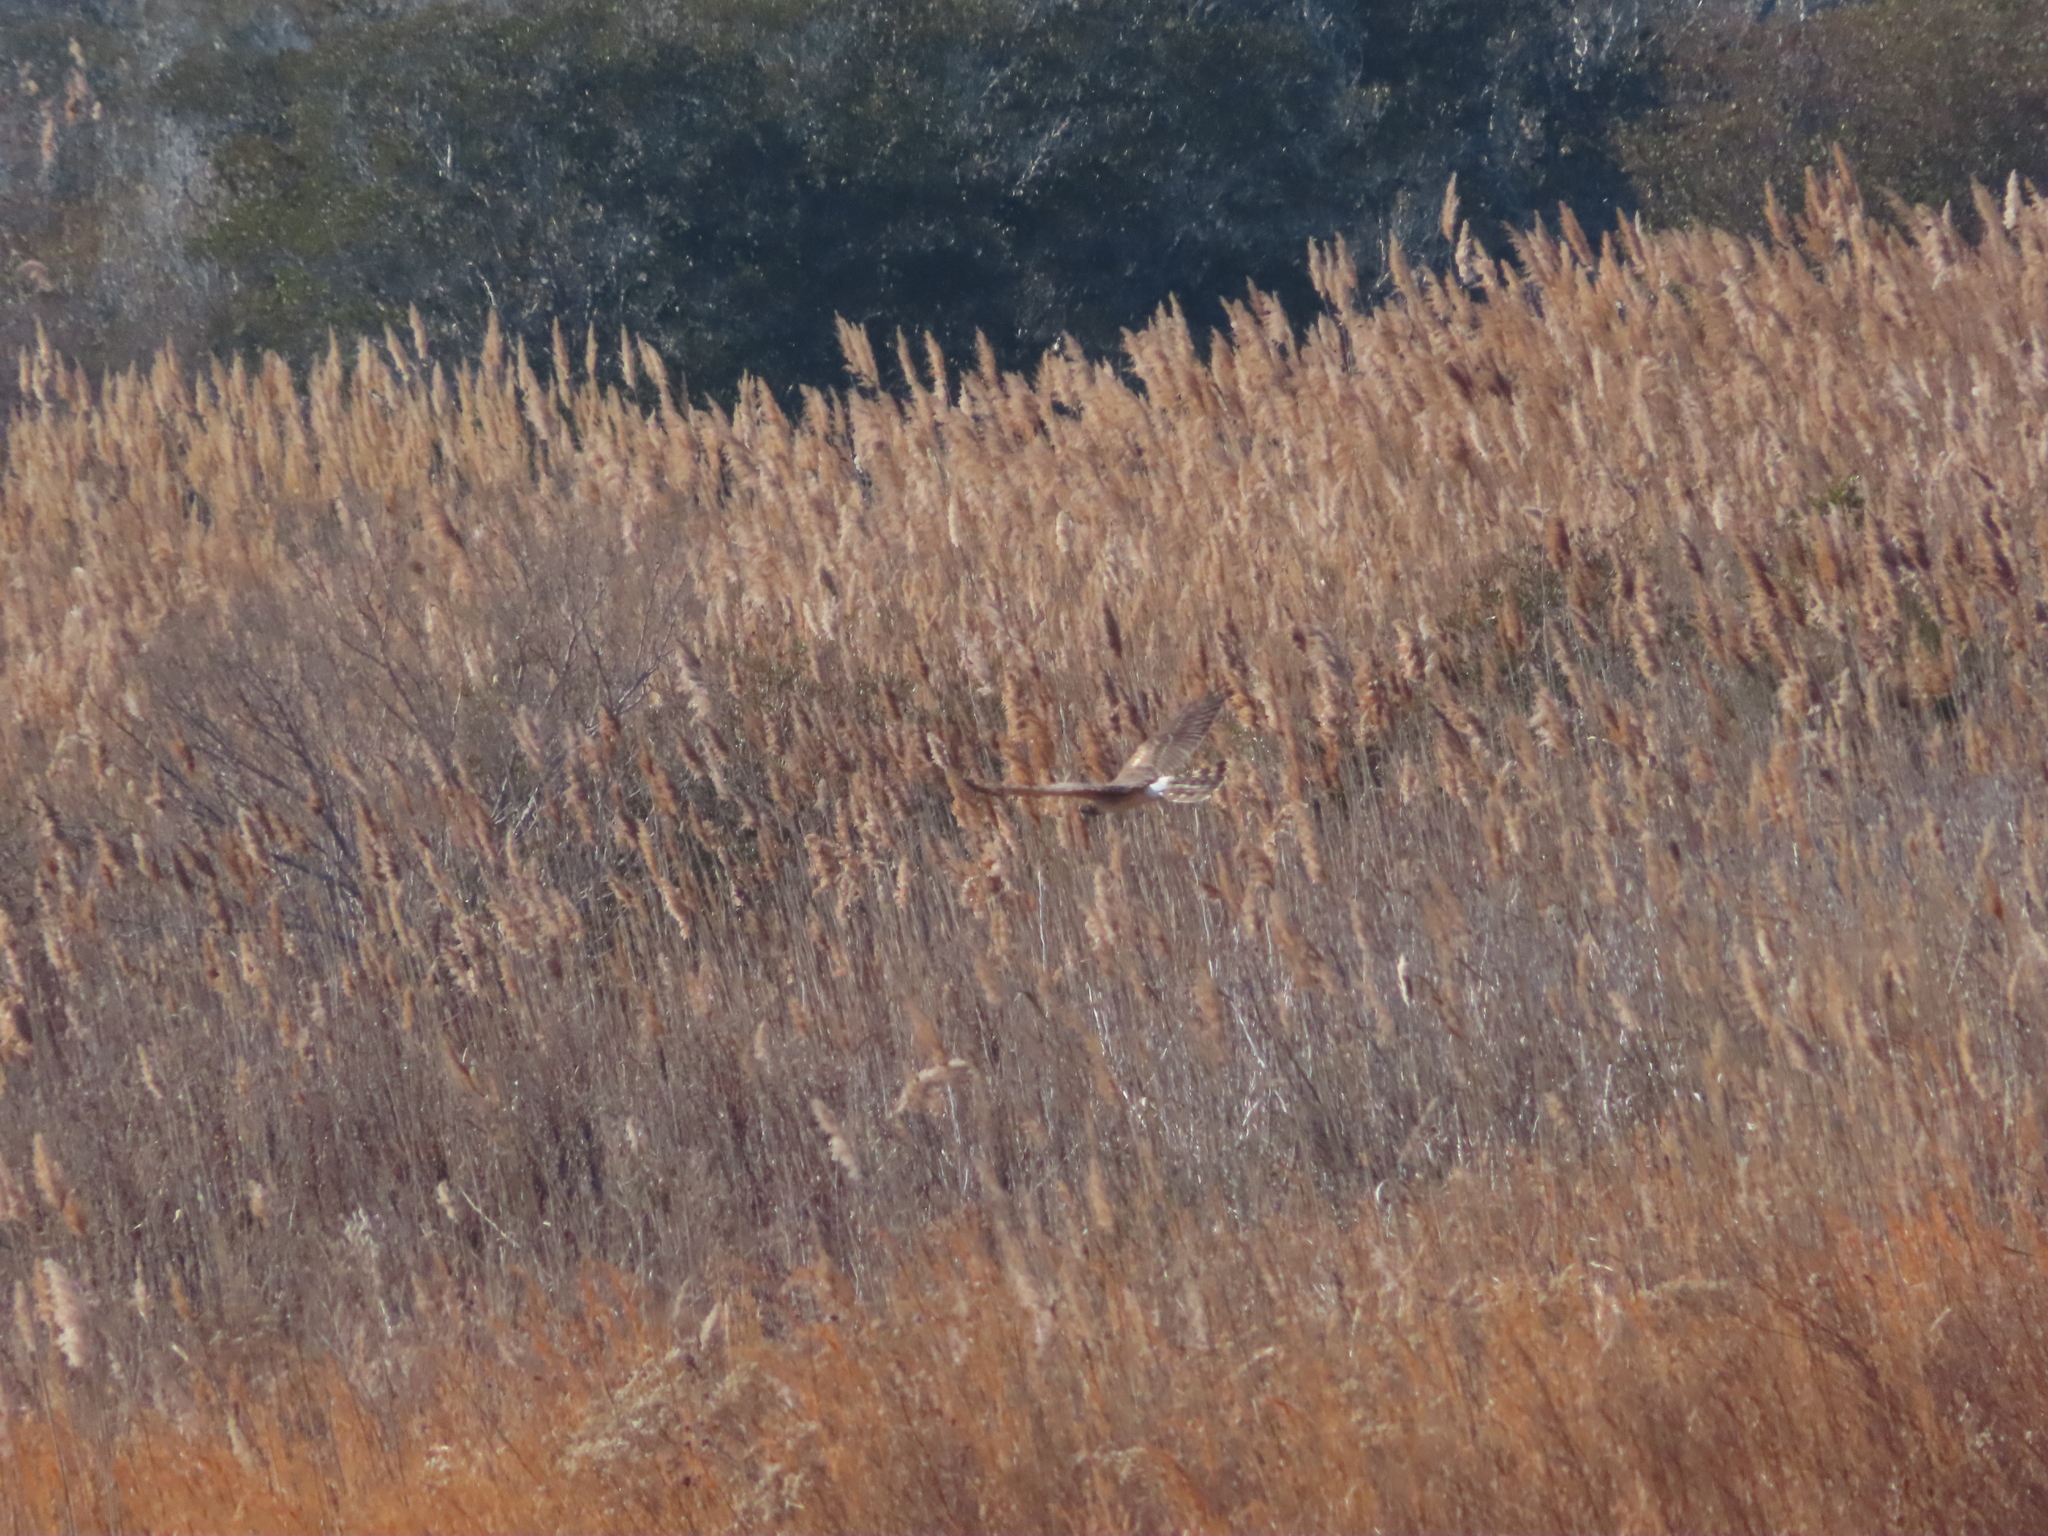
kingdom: Animalia
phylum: Chordata
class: Aves
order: Accipitriformes
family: Accipitridae
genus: Circus
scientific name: Circus cyaneus
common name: Hen harrier
